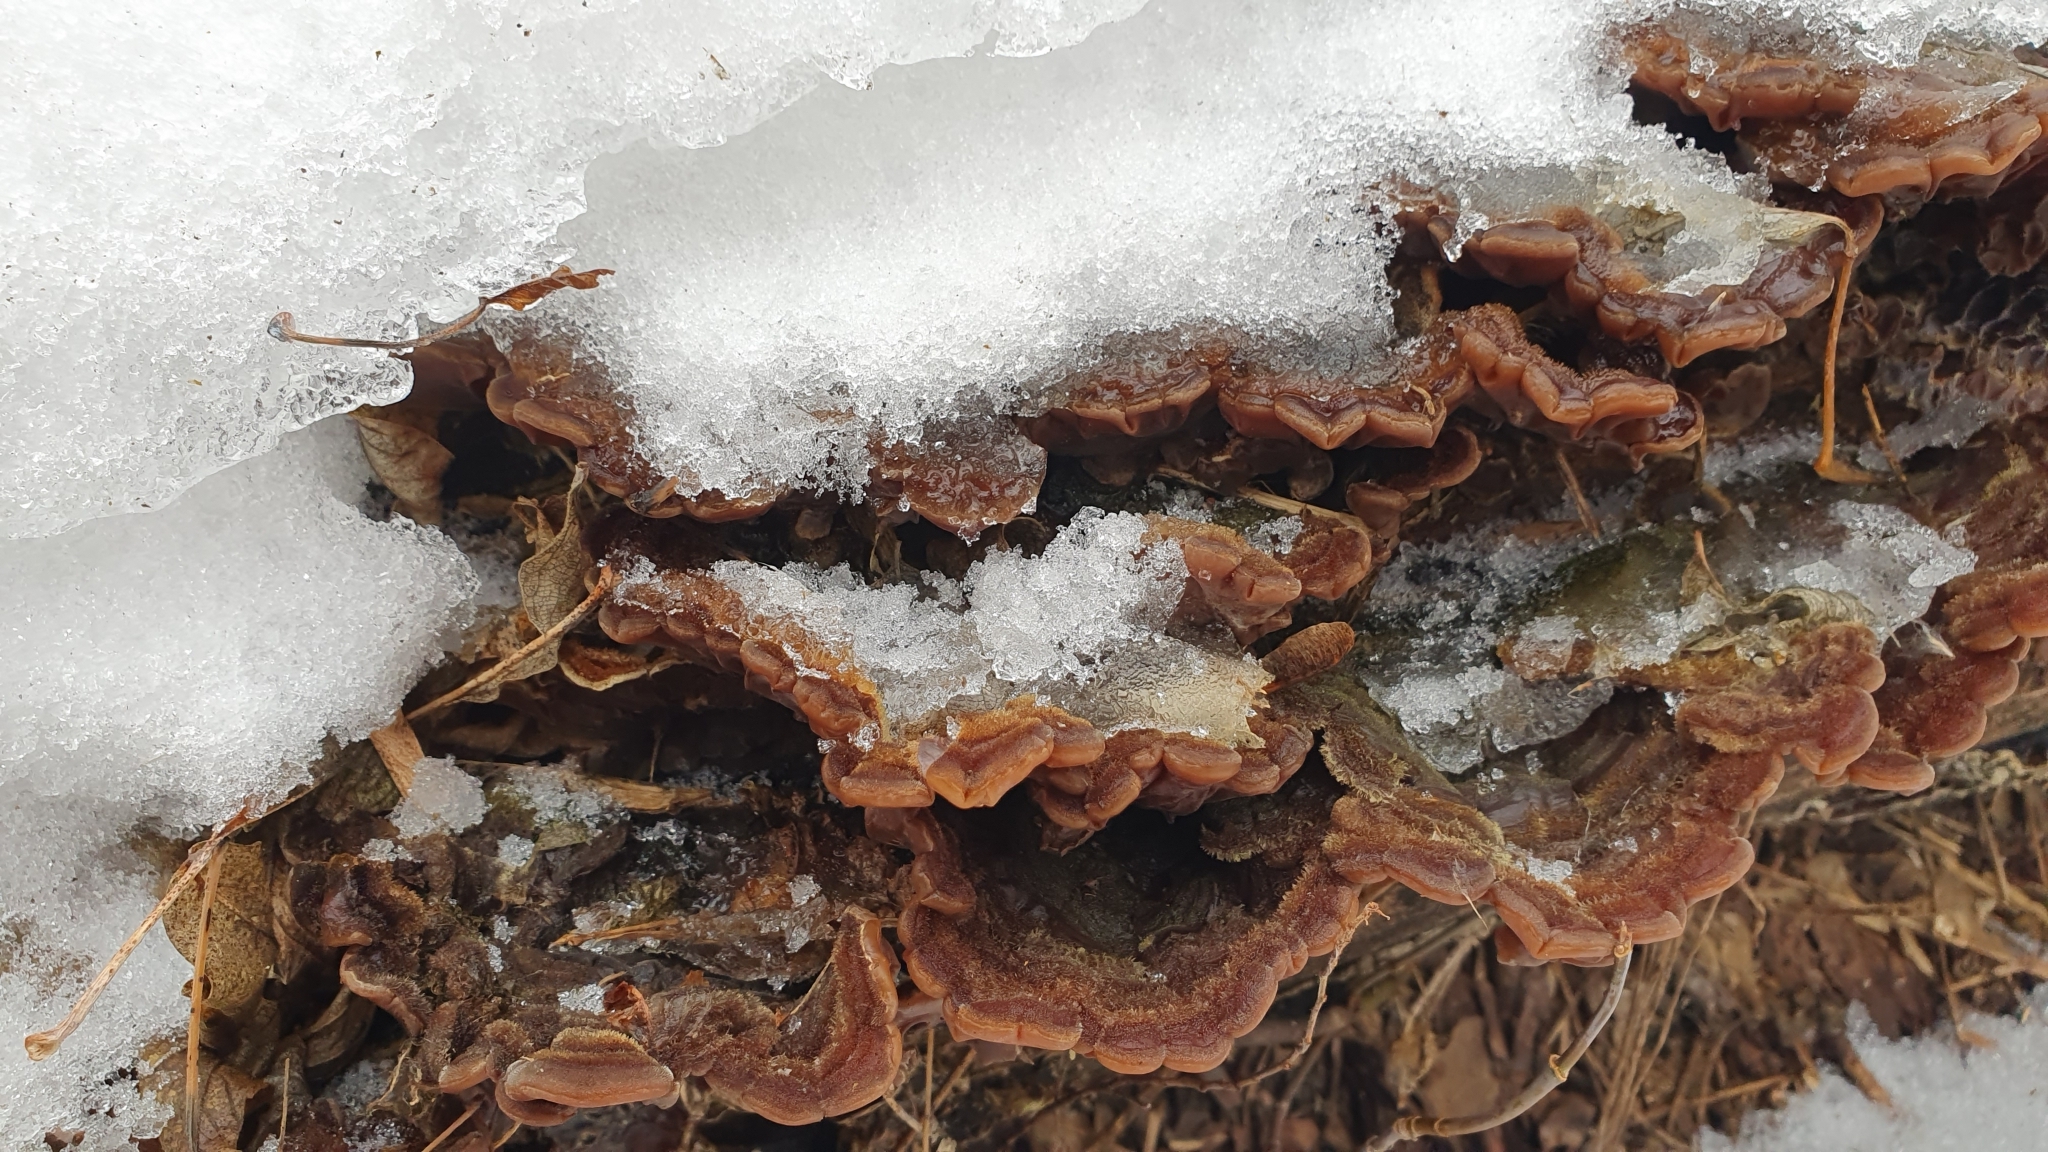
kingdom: Fungi
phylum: Basidiomycota
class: Agaricomycetes
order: Auriculariales
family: Auriculariaceae
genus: Auricularia
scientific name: Auricularia mesenterica
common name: Tripe fungus
